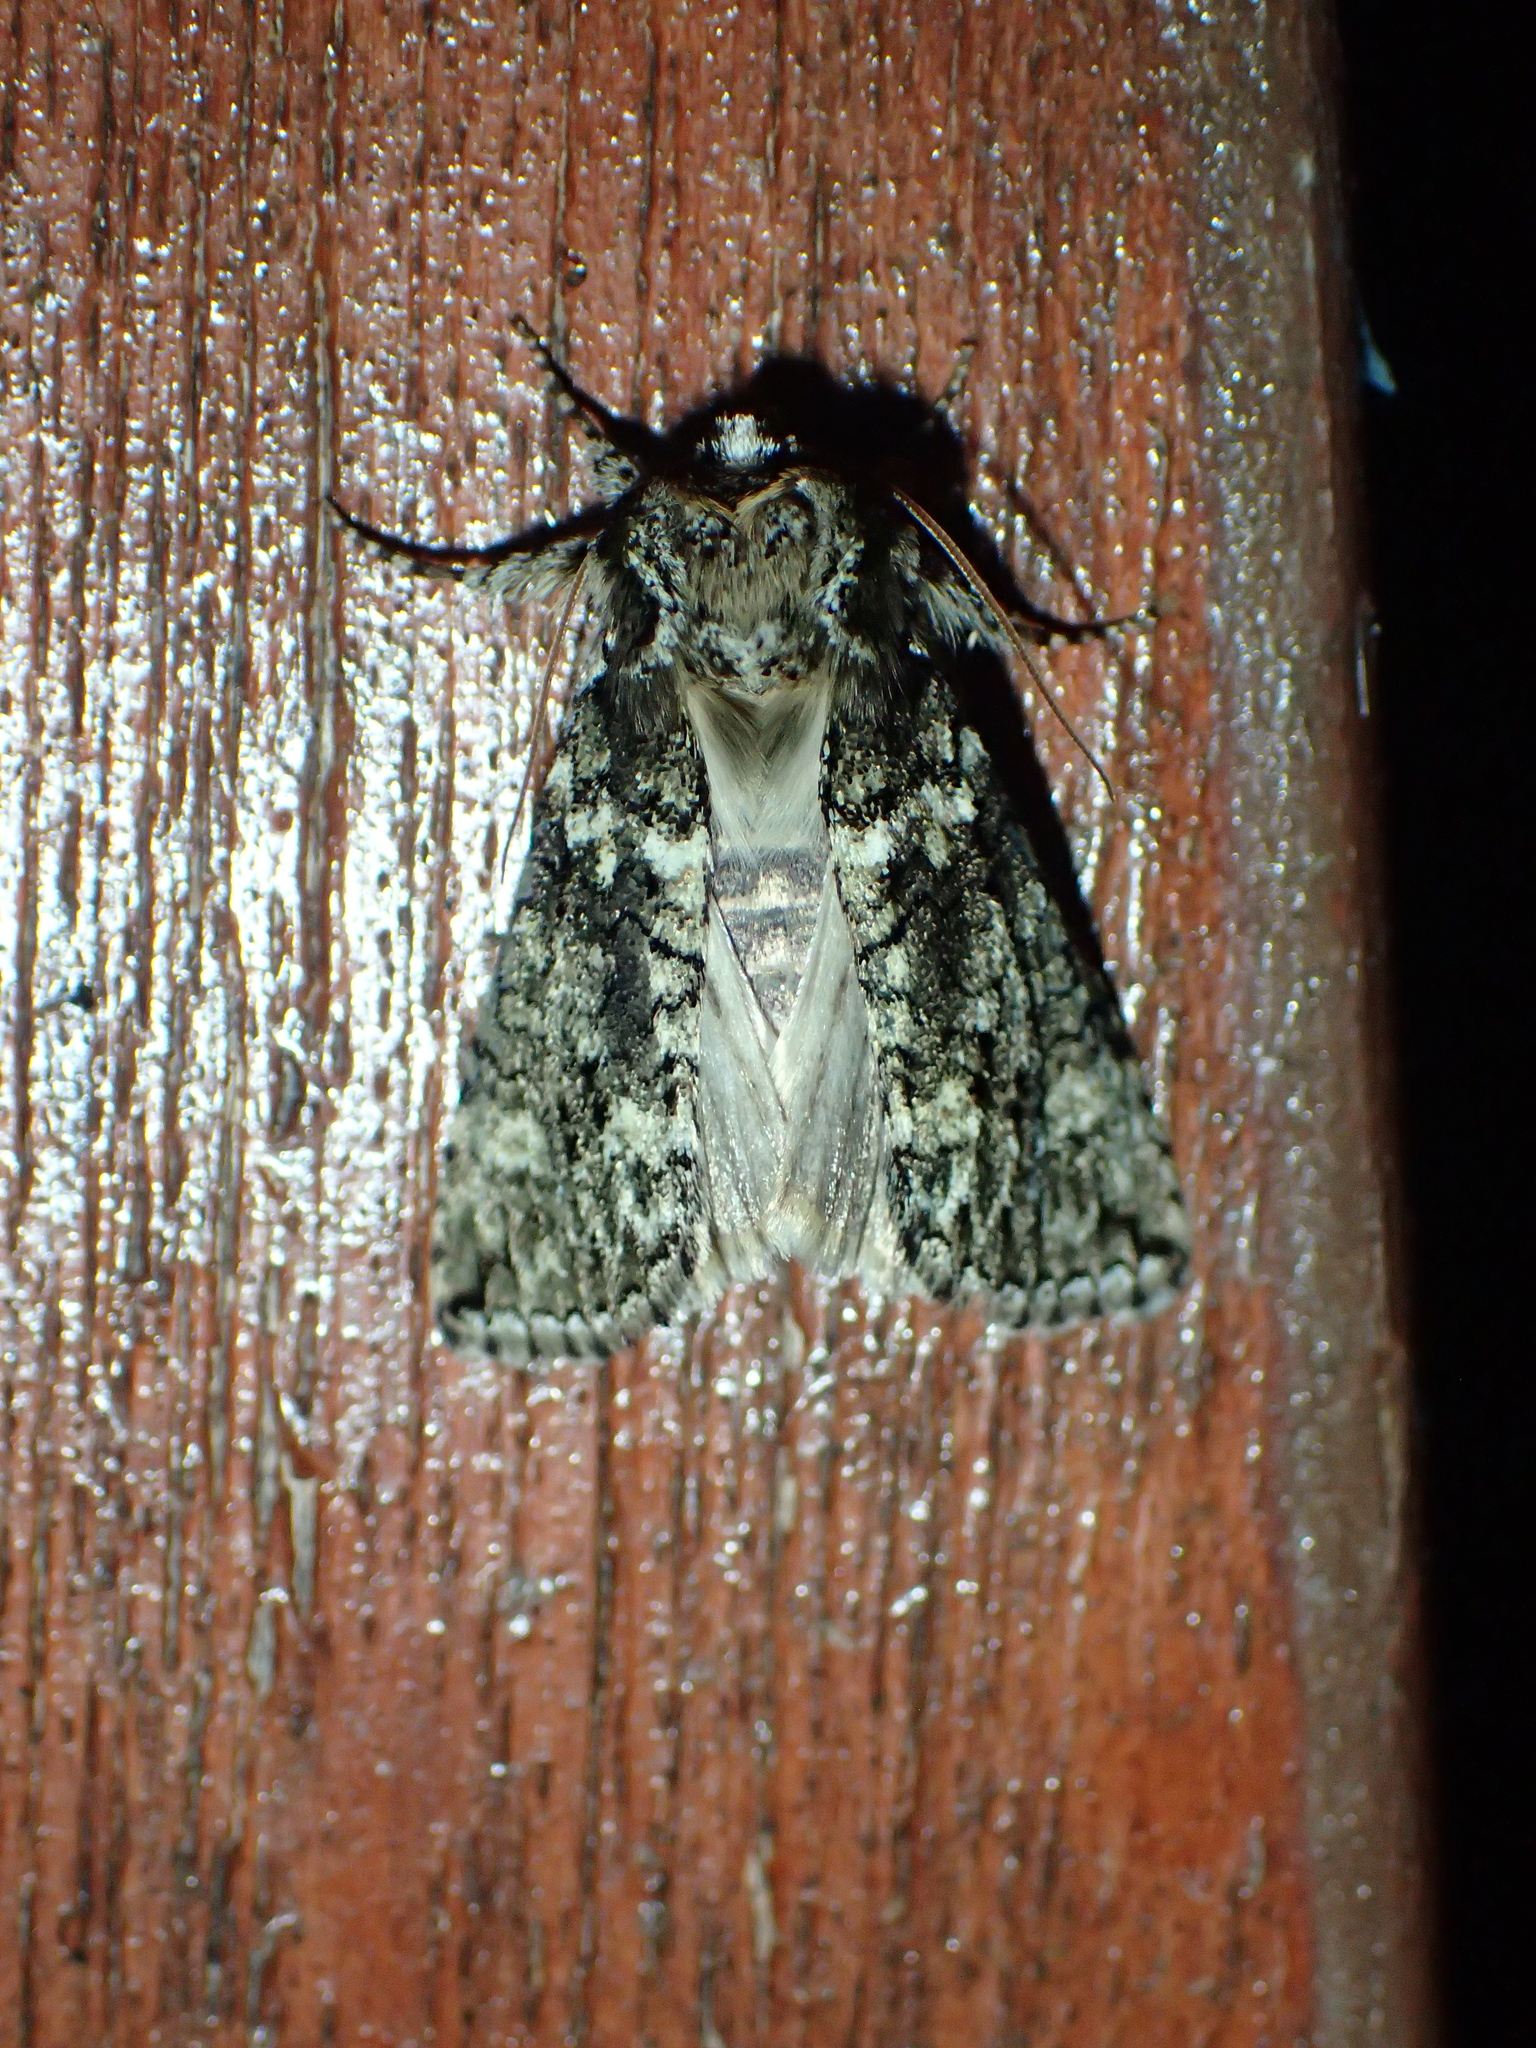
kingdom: Animalia
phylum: Arthropoda
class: Insecta
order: Lepidoptera
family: Drepanidae
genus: Polyploca
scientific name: Polyploca ridens
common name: Frosted green
